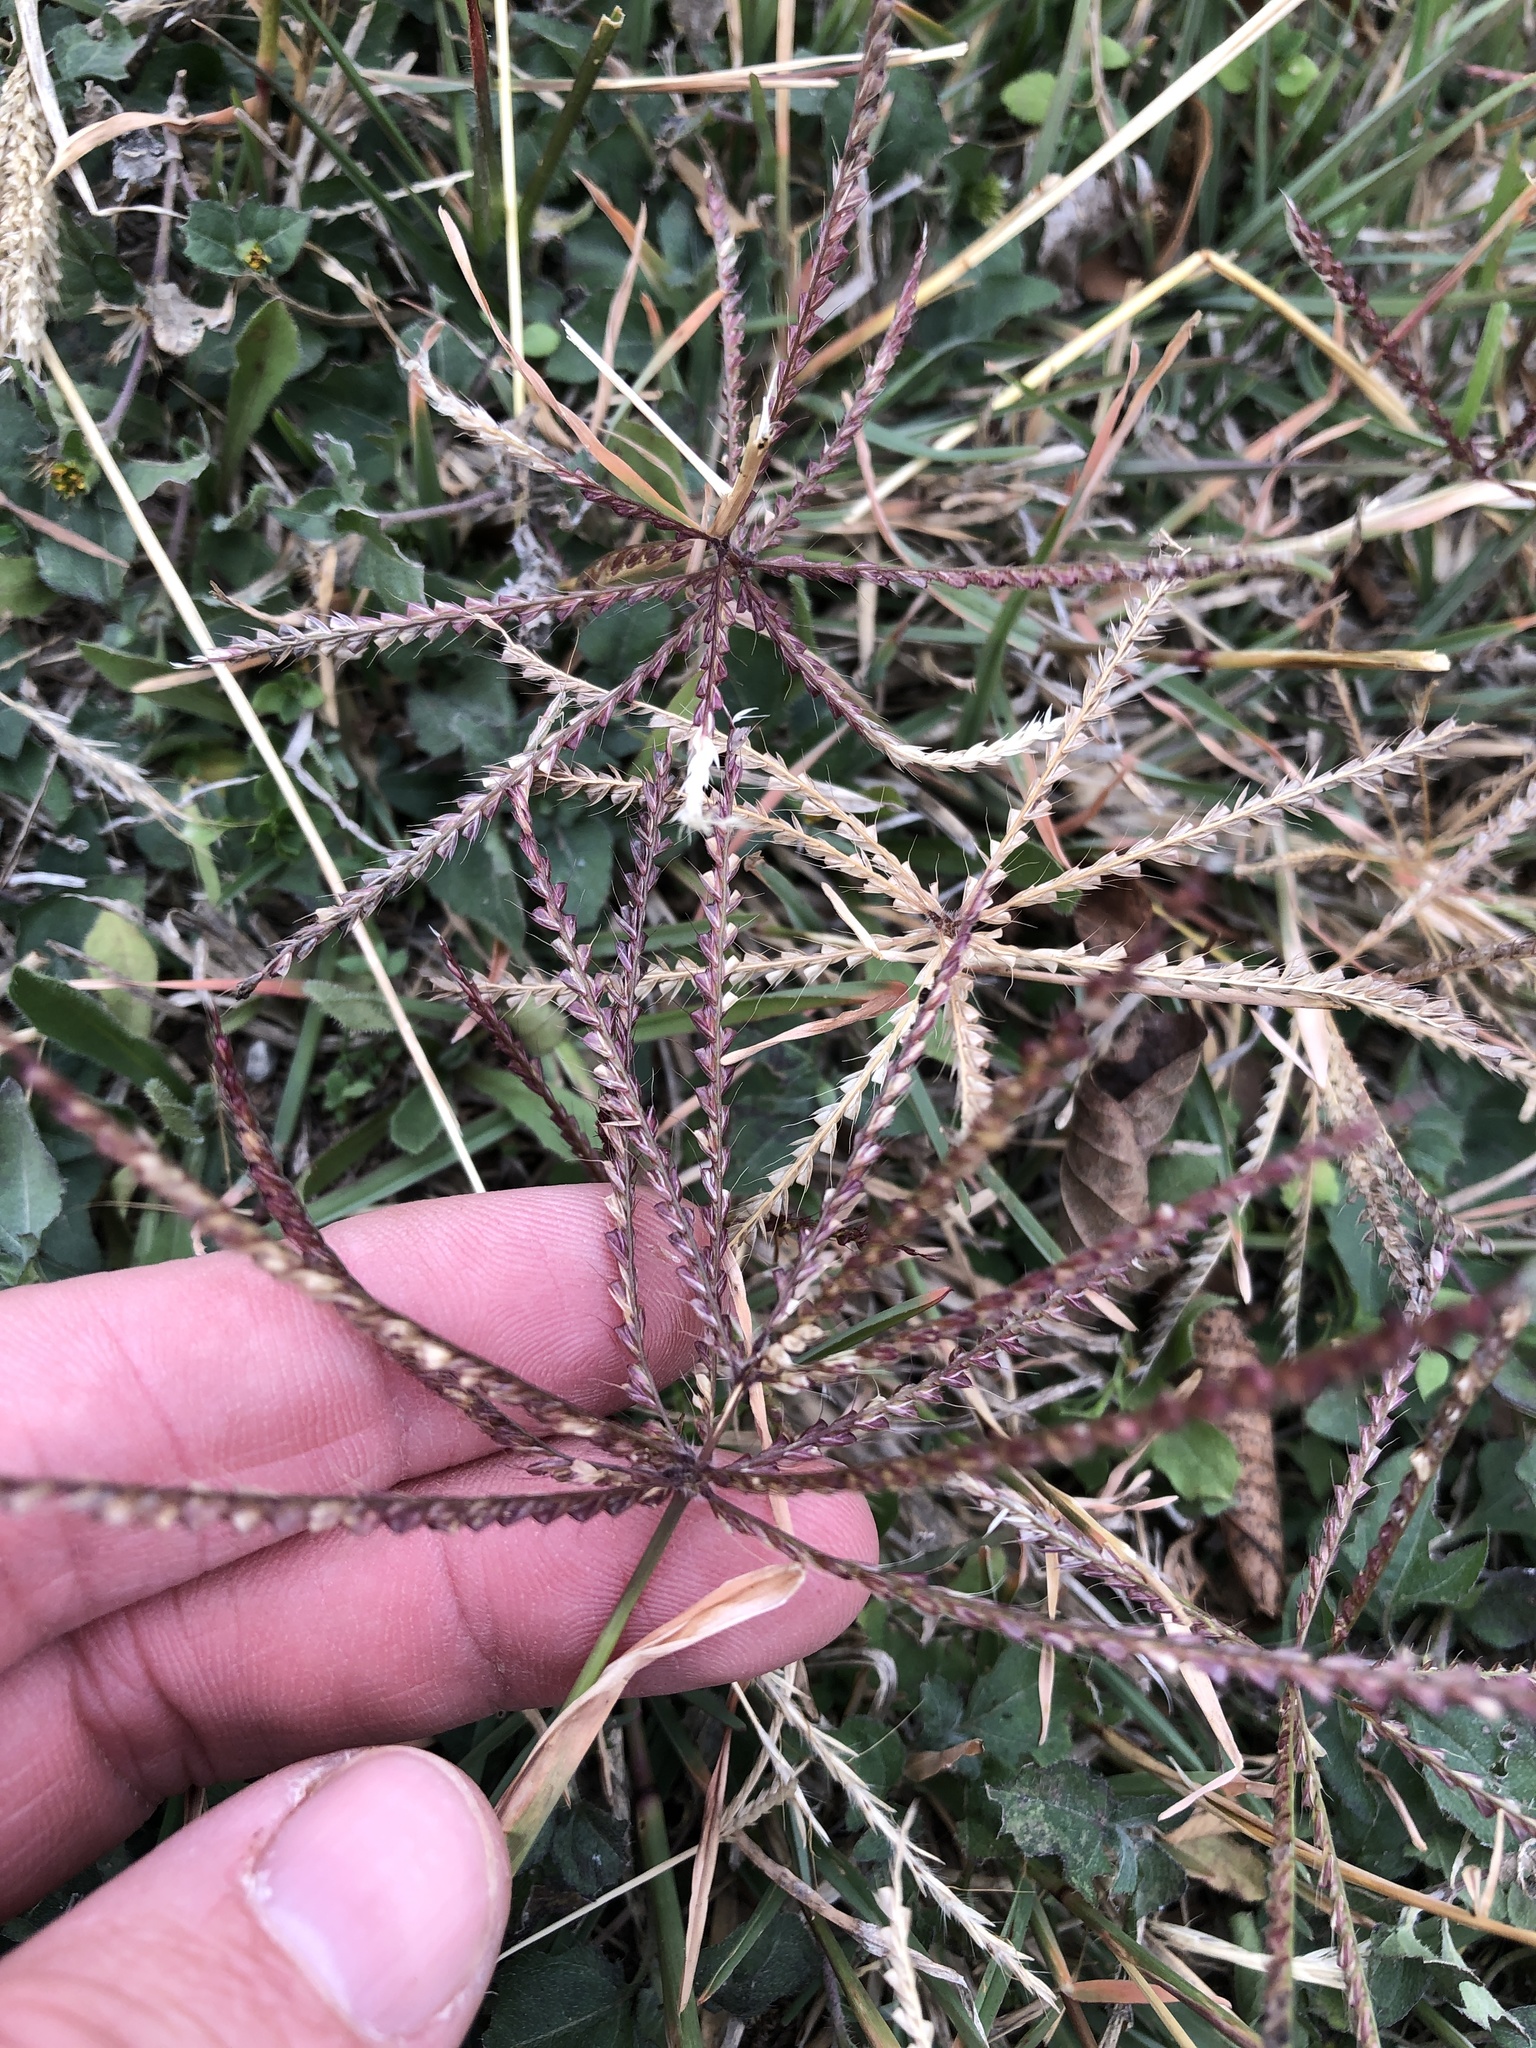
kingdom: Plantae
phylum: Tracheophyta
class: Liliopsida
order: Poales
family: Poaceae
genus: Chloris
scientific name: Chloris verticillata
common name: Tumble windmill grass
